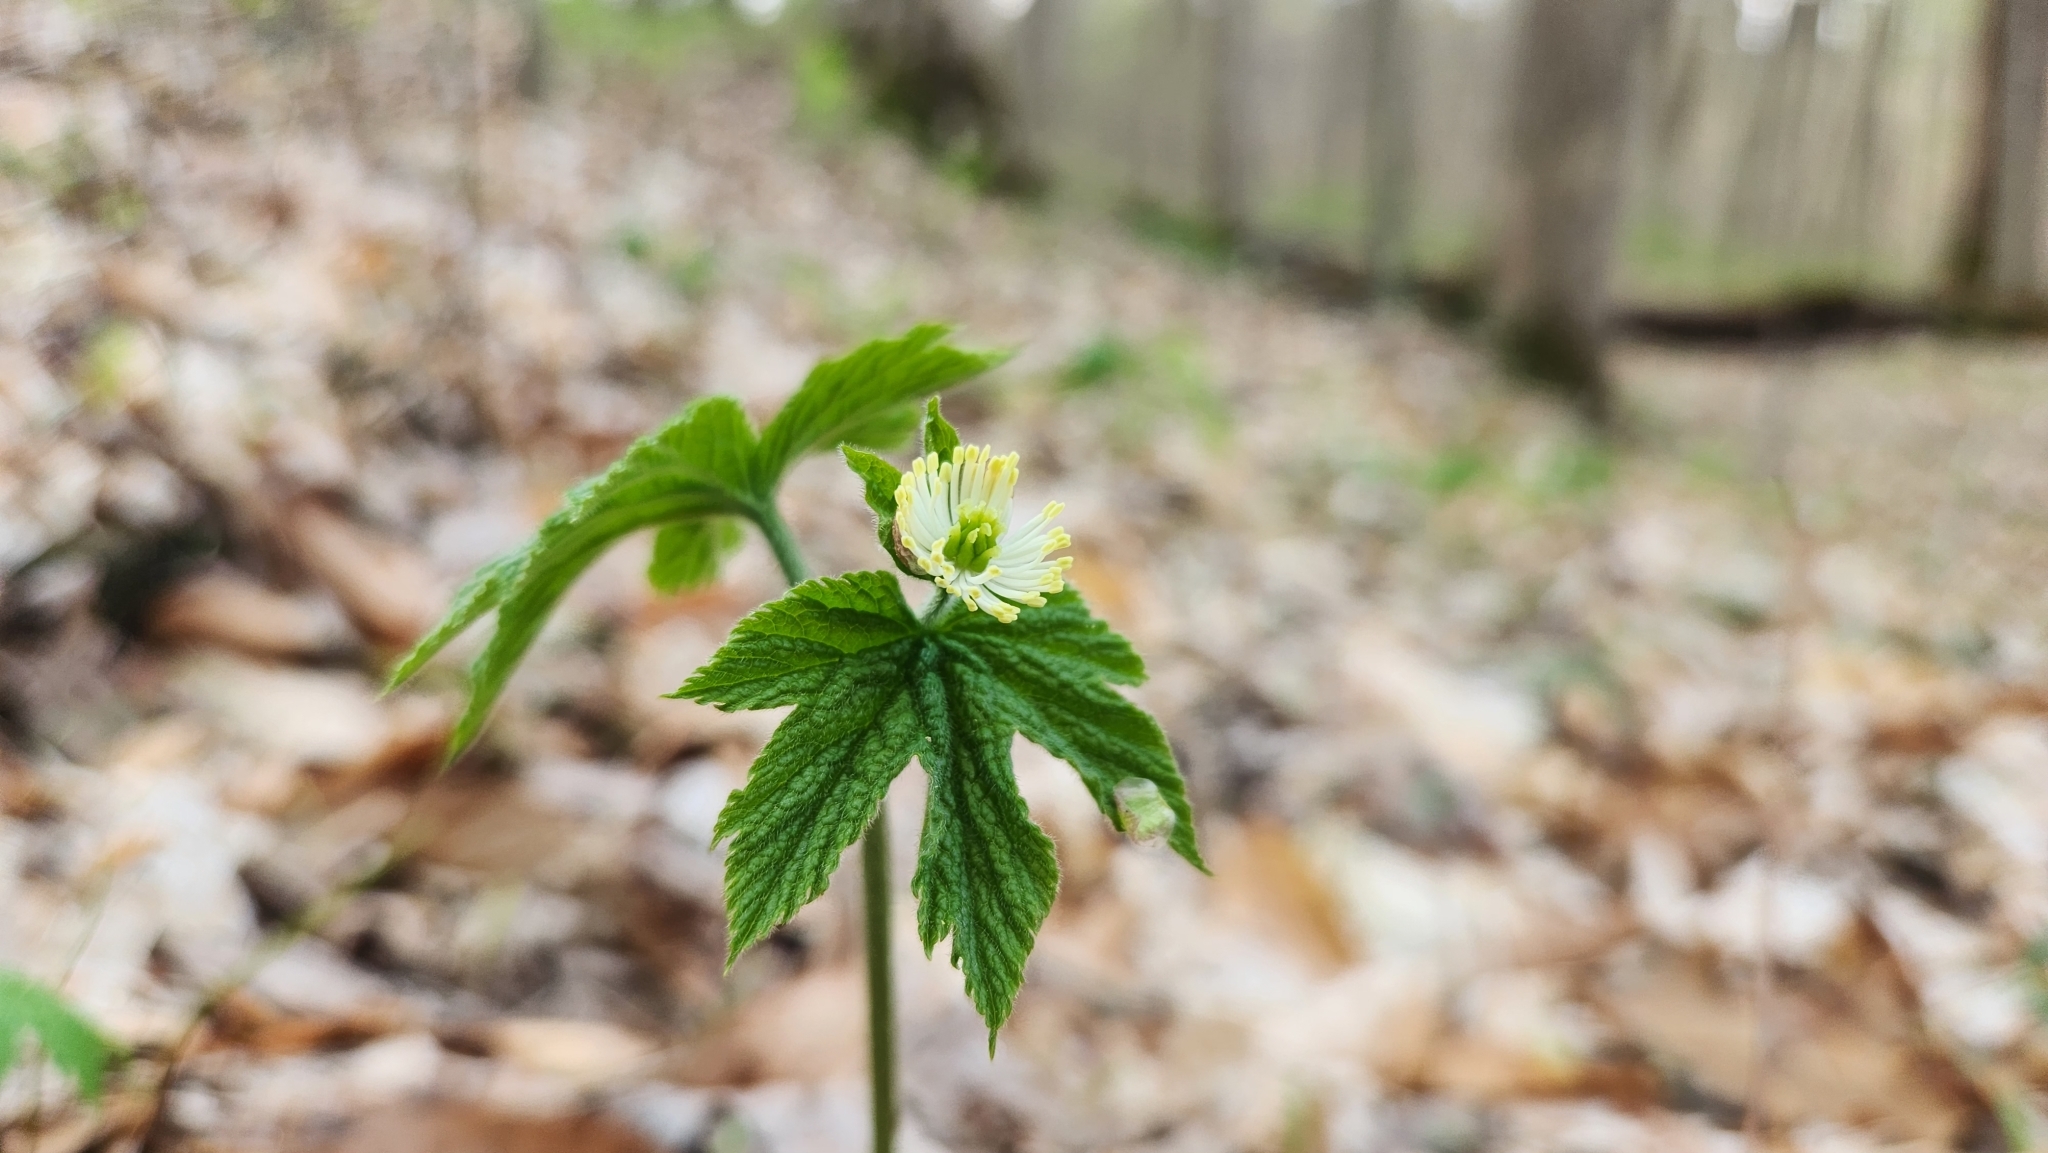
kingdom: Plantae
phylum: Tracheophyta
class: Magnoliopsida
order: Ranunculales
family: Ranunculaceae
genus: Hydrastis
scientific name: Hydrastis canadensis
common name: Goldenseal
